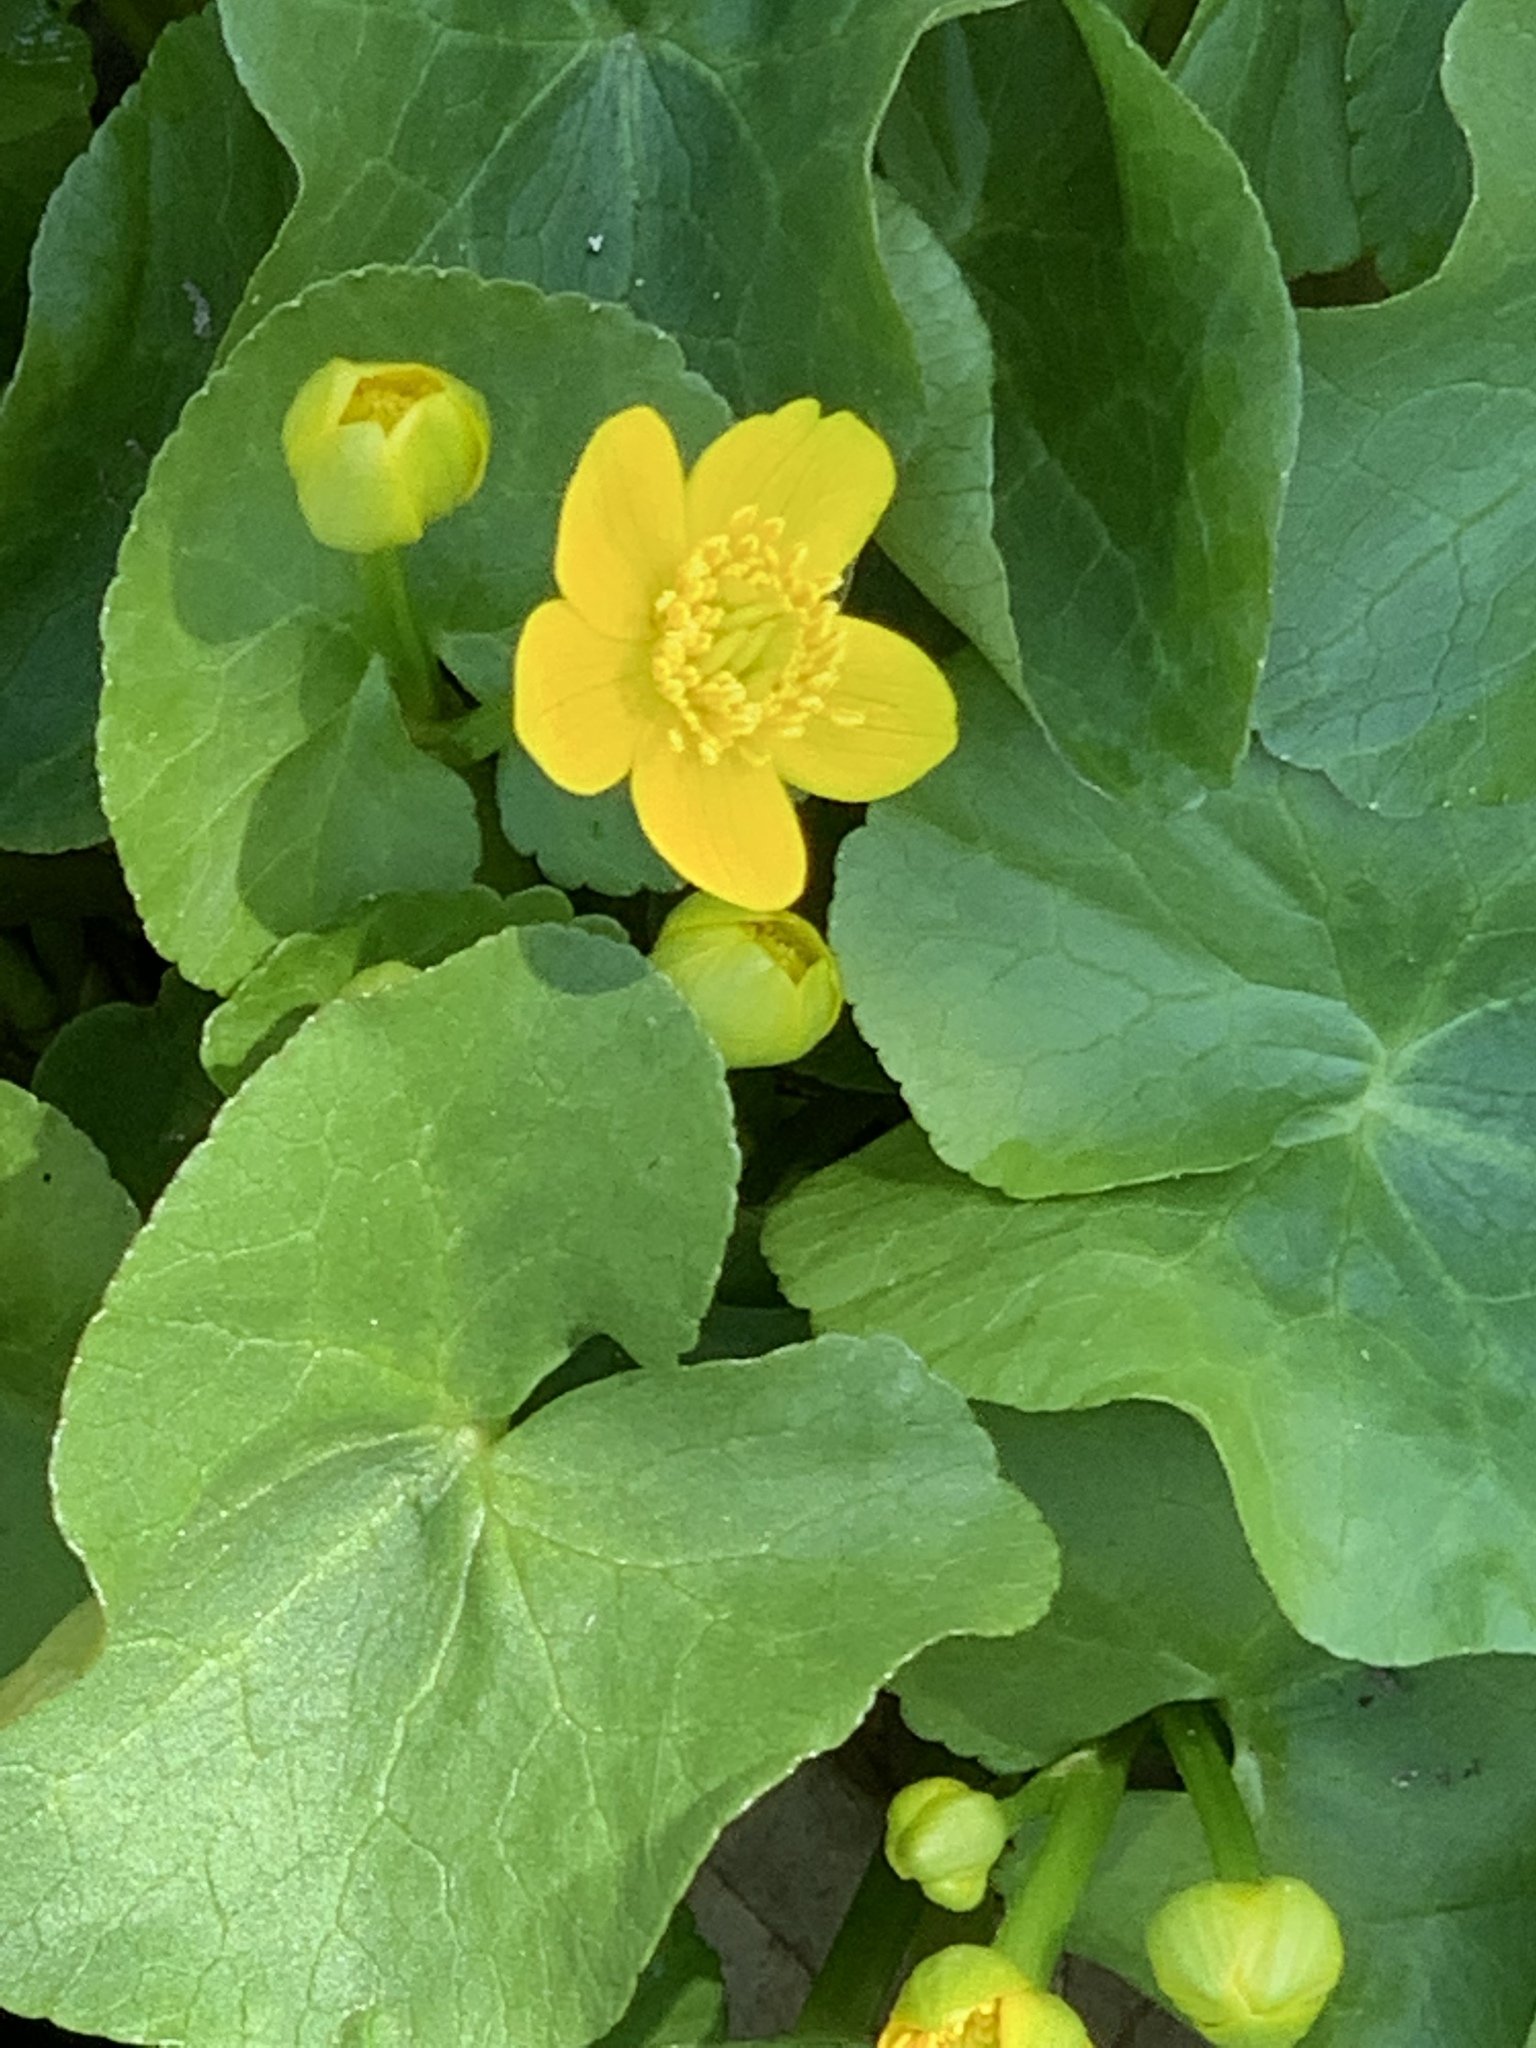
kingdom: Plantae
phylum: Tracheophyta
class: Magnoliopsida
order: Ranunculales
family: Ranunculaceae
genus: Caltha
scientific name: Caltha palustris
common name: Marsh marigold
